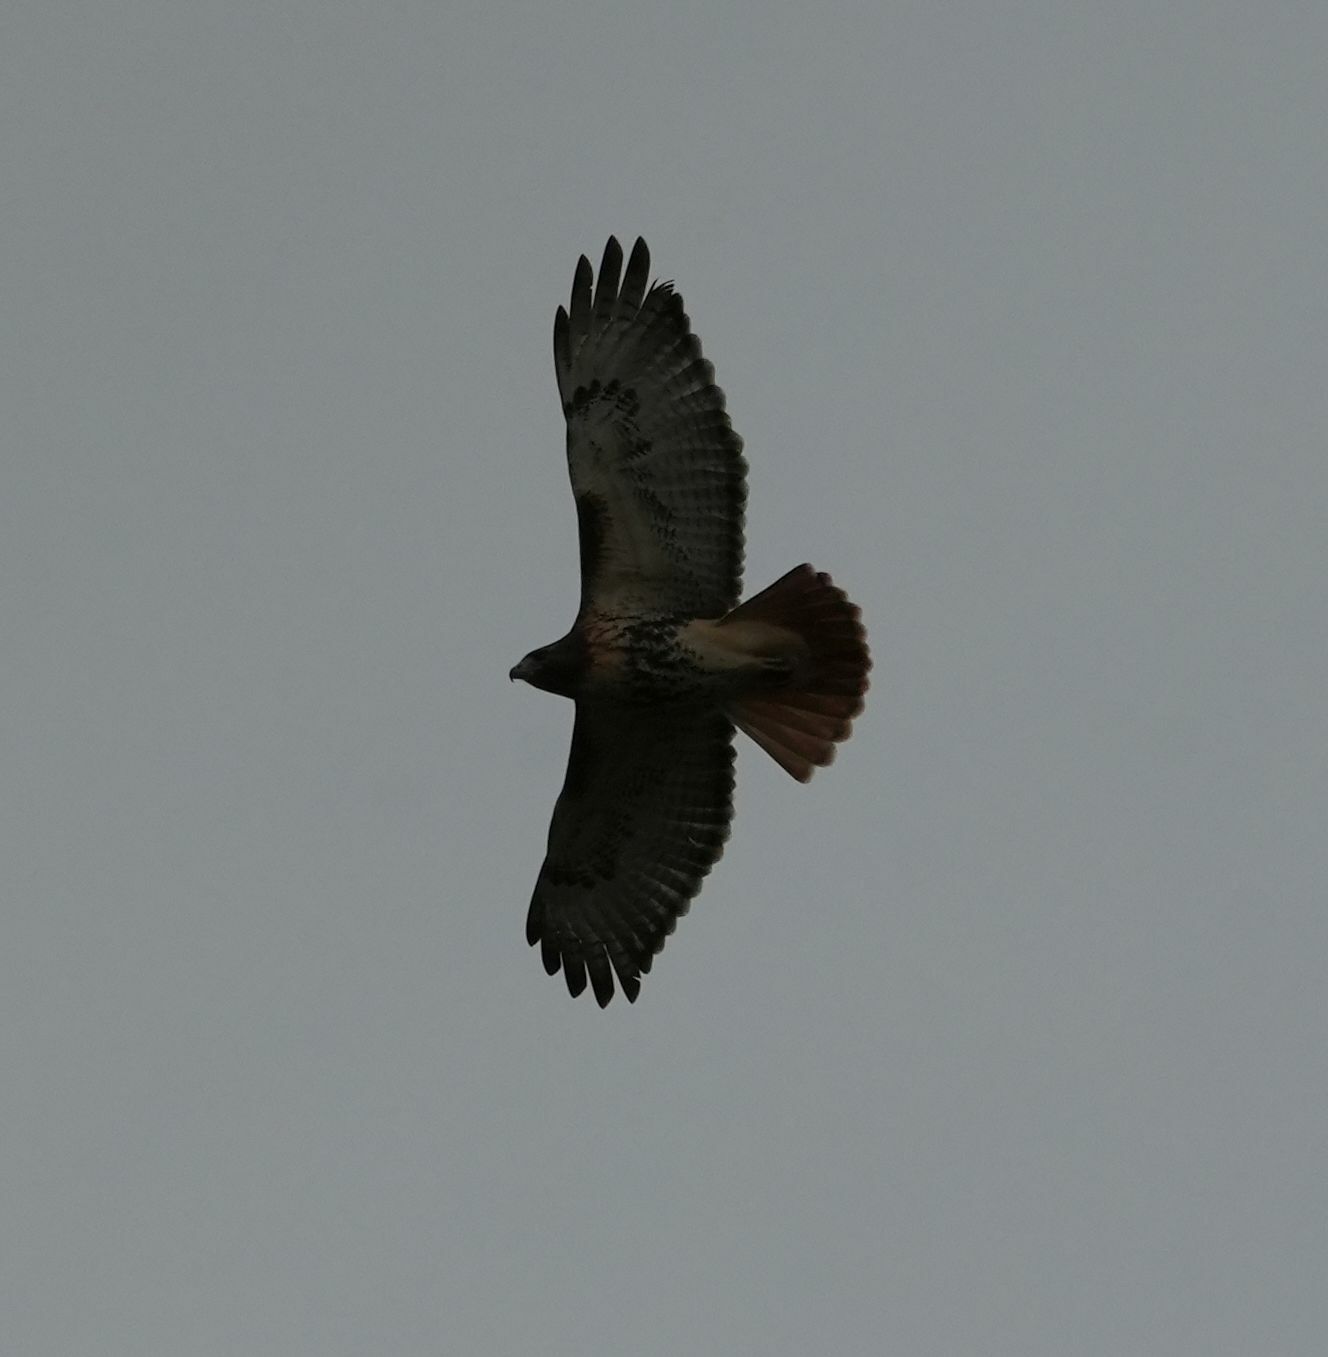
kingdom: Animalia
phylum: Chordata
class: Aves
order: Accipitriformes
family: Accipitridae
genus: Buteo
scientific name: Buteo jamaicensis
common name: Red-tailed hawk
